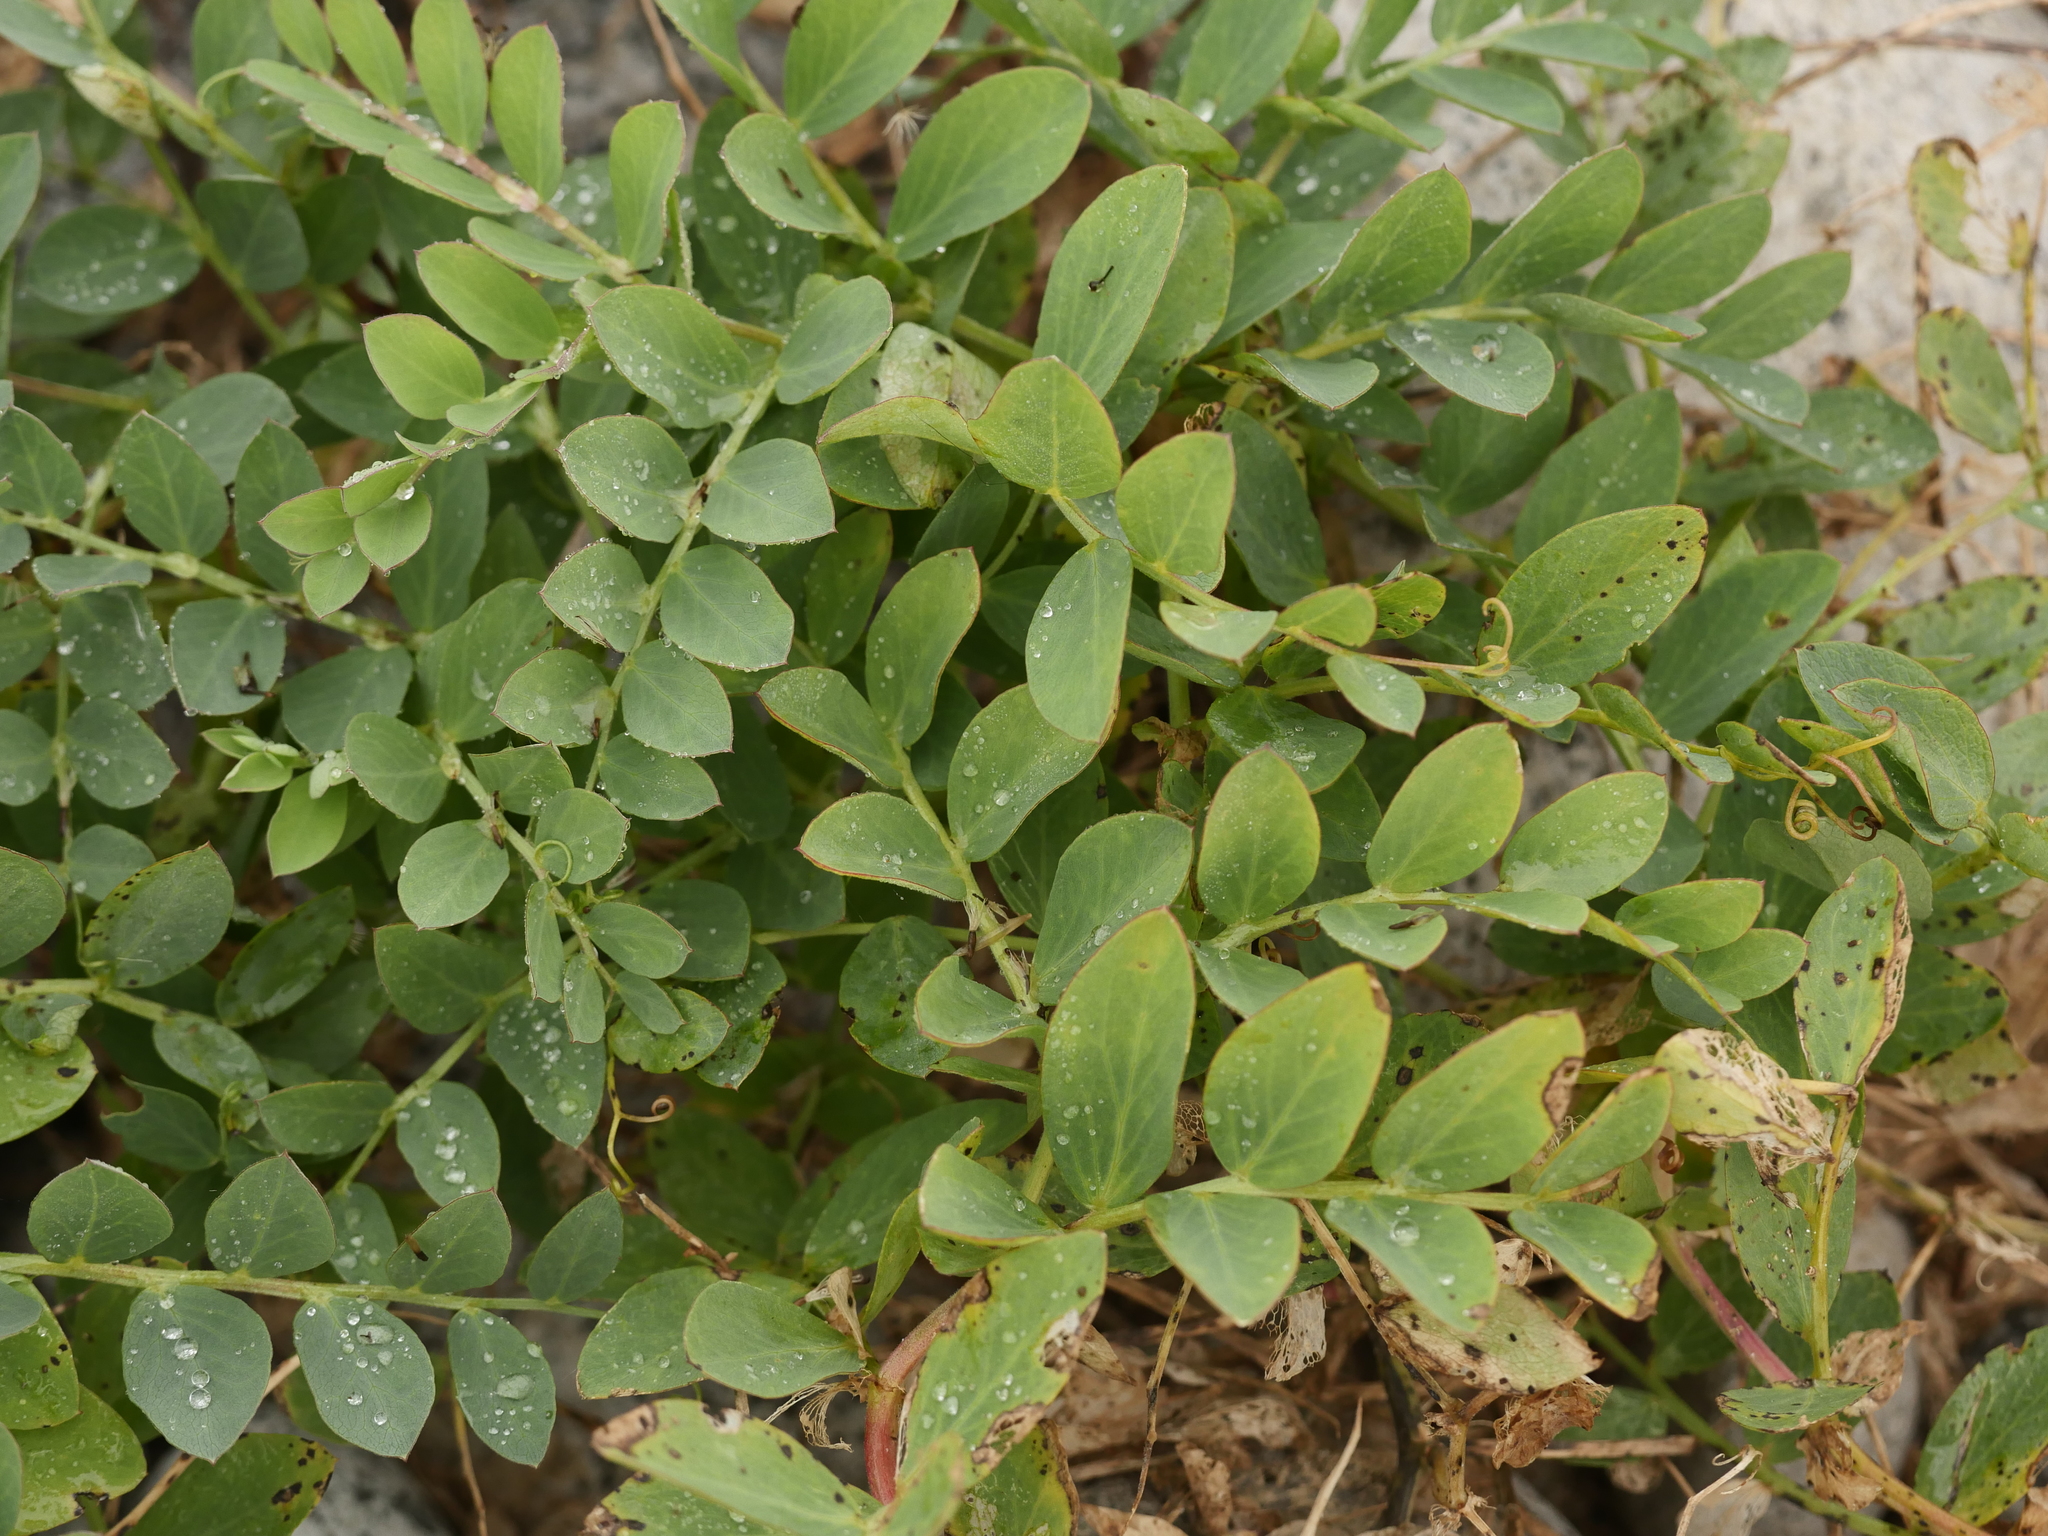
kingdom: Plantae
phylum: Tracheophyta
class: Magnoliopsida
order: Fabales
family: Fabaceae
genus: Lathyrus
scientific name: Lathyrus japonicus
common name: Sea pea
